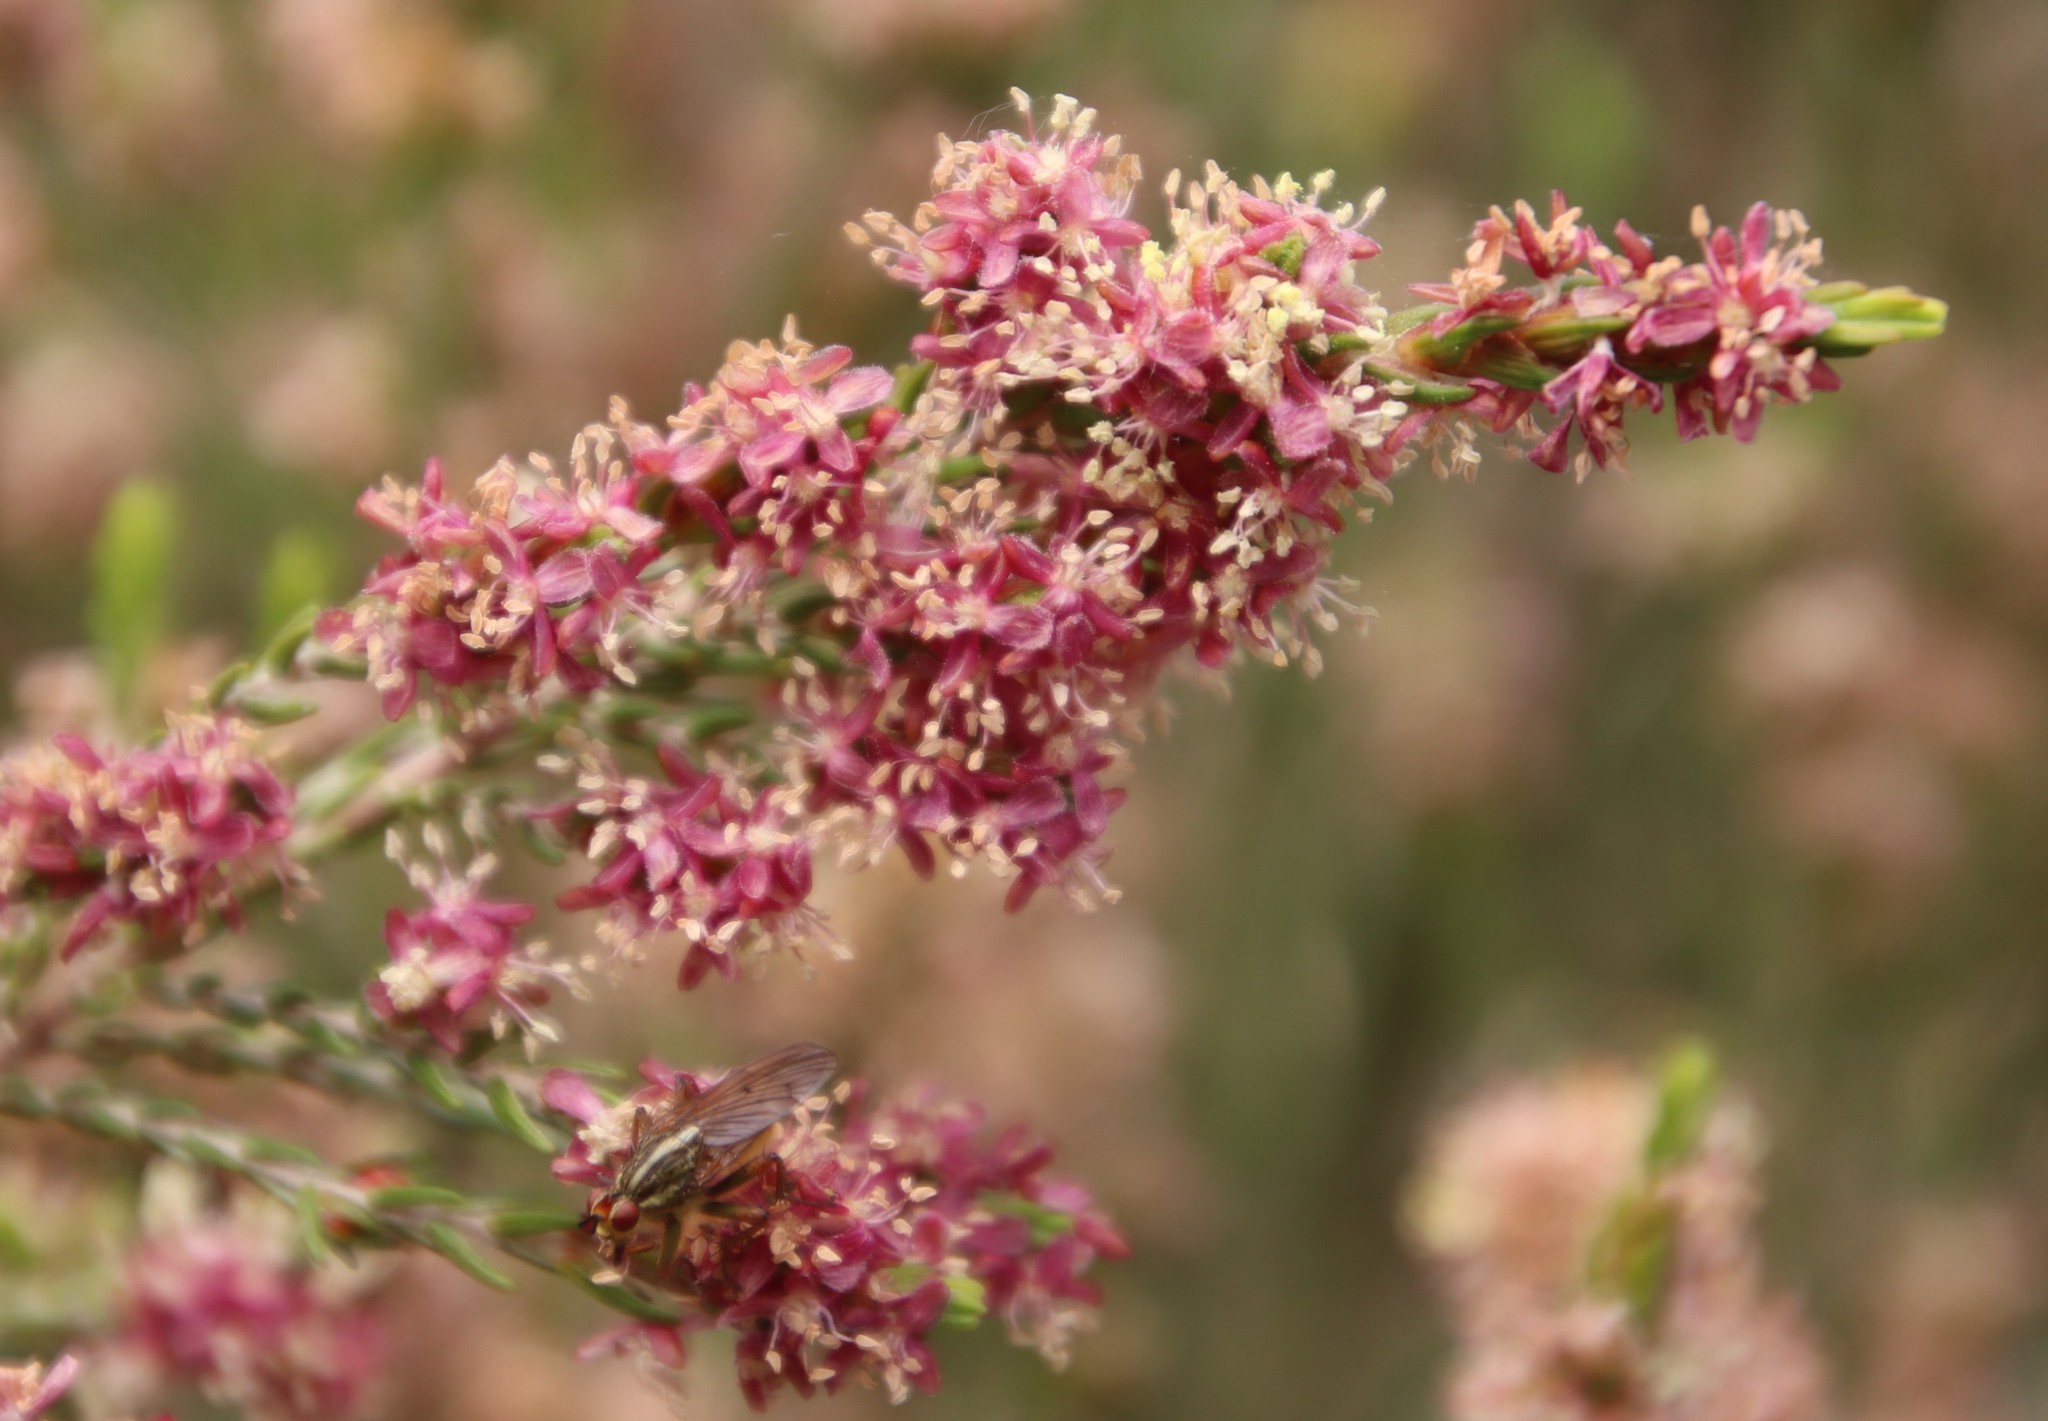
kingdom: Plantae
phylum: Tracheophyta
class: Magnoliopsida
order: Malvales
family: Thymelaeaceae
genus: Passerina
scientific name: Passerina corymbosa
